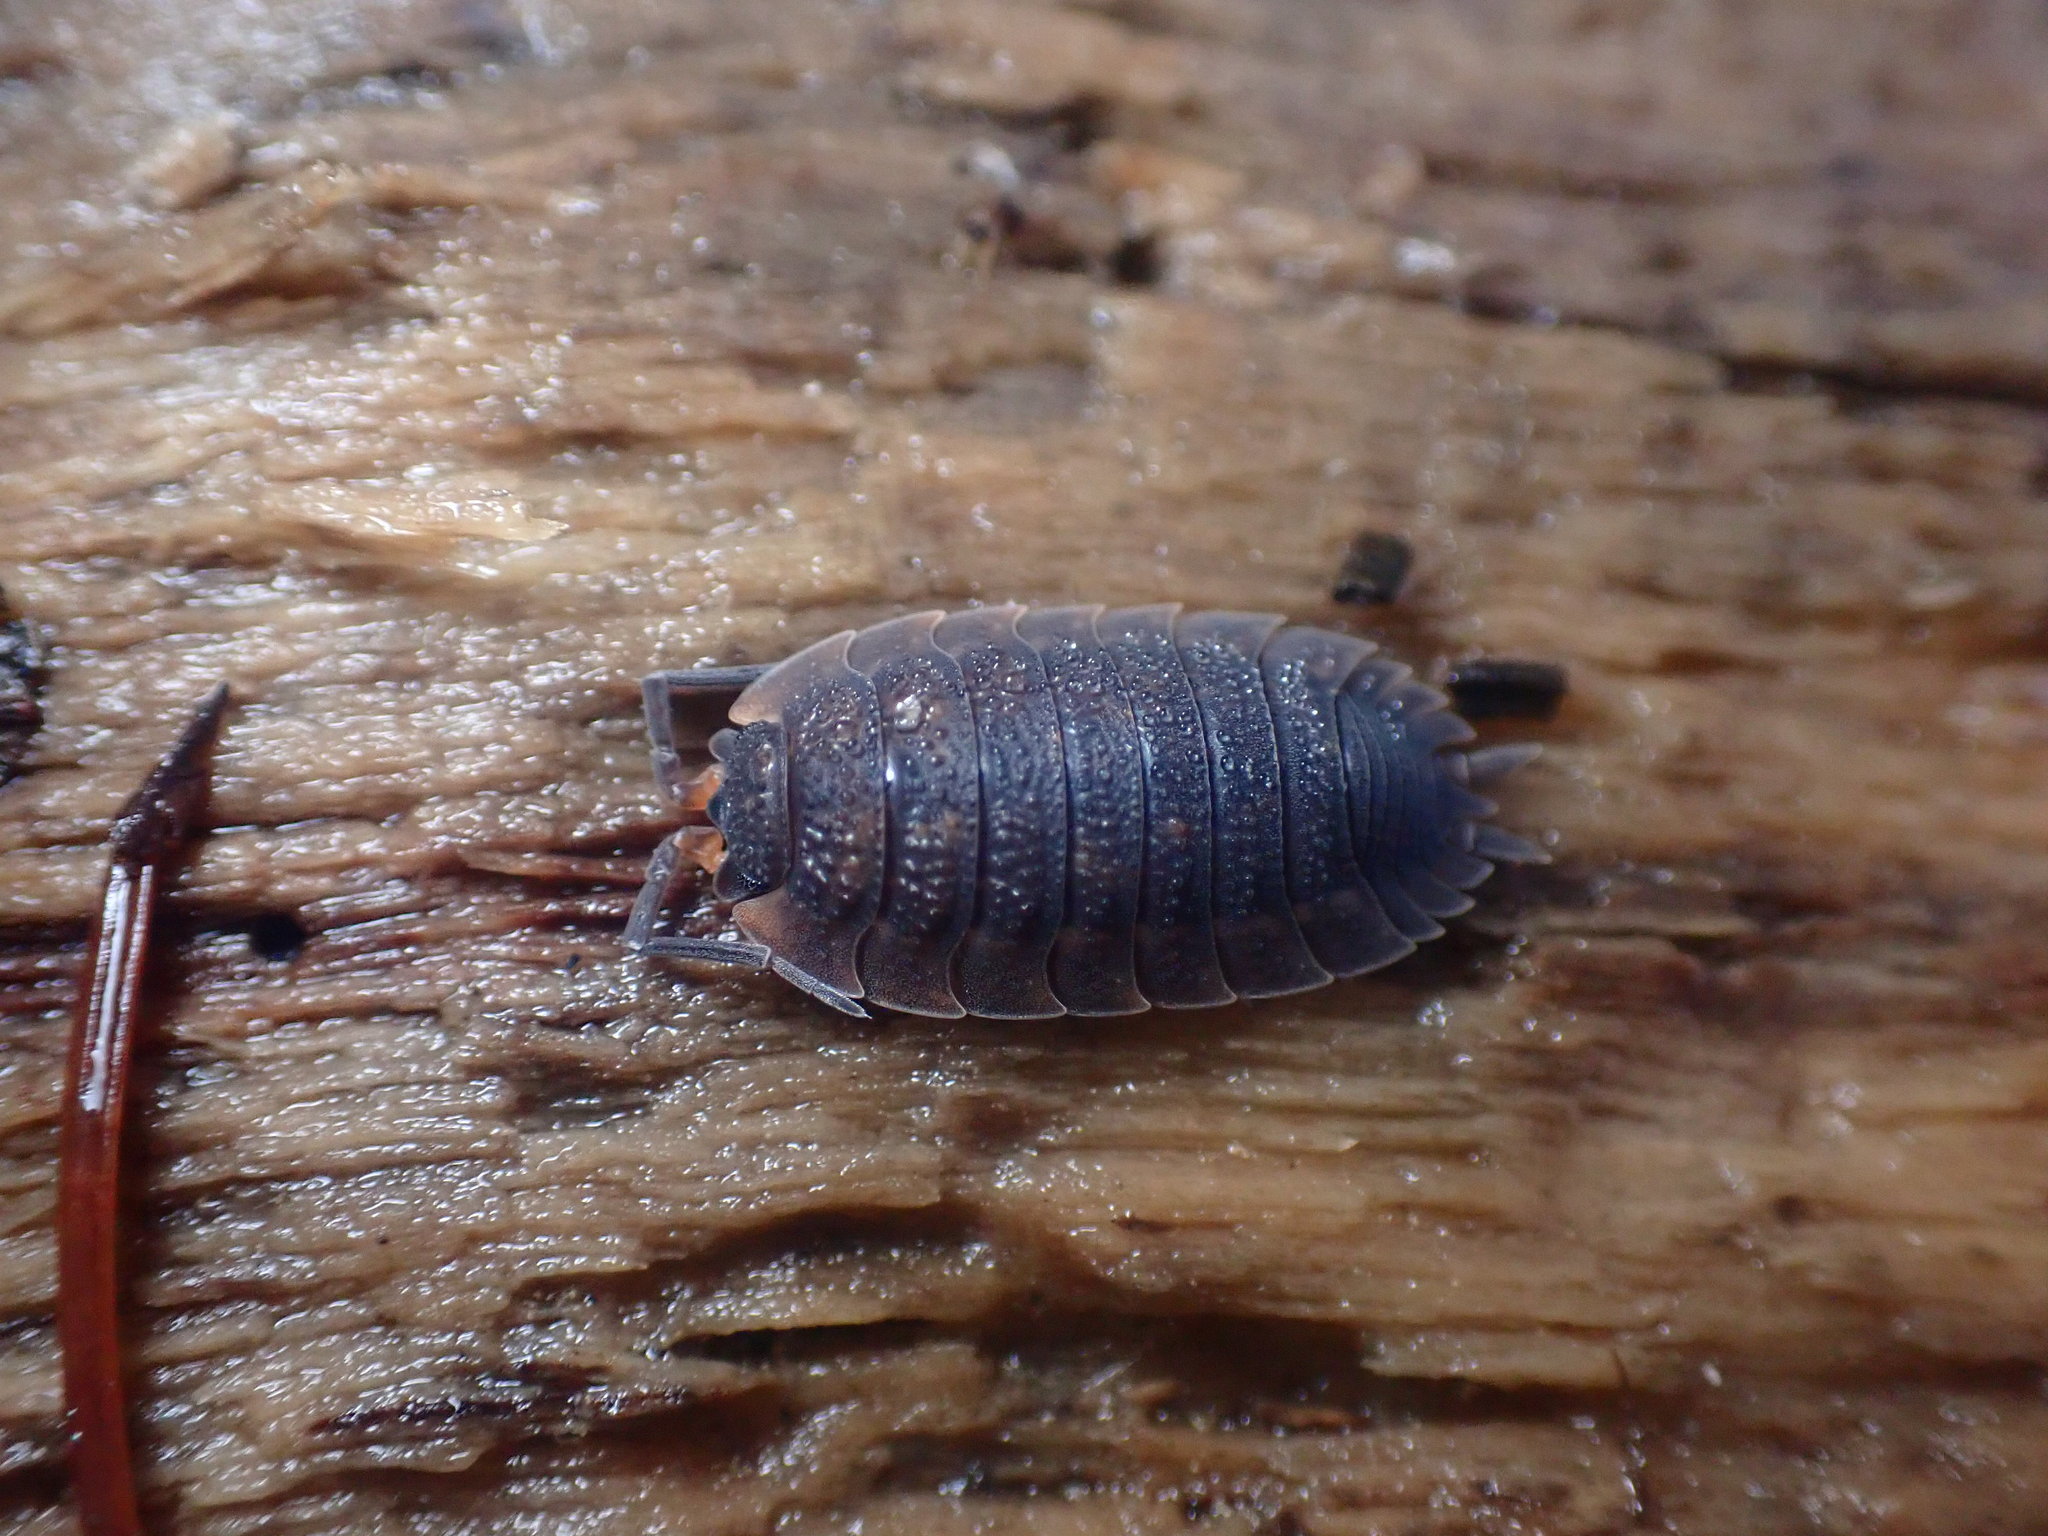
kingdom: Animalia
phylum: Arthropoda
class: Malacostraca
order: Isopoda
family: Porcellionidae
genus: Porcellio
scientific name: Porcellio scaber
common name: Common rough woodlouse
